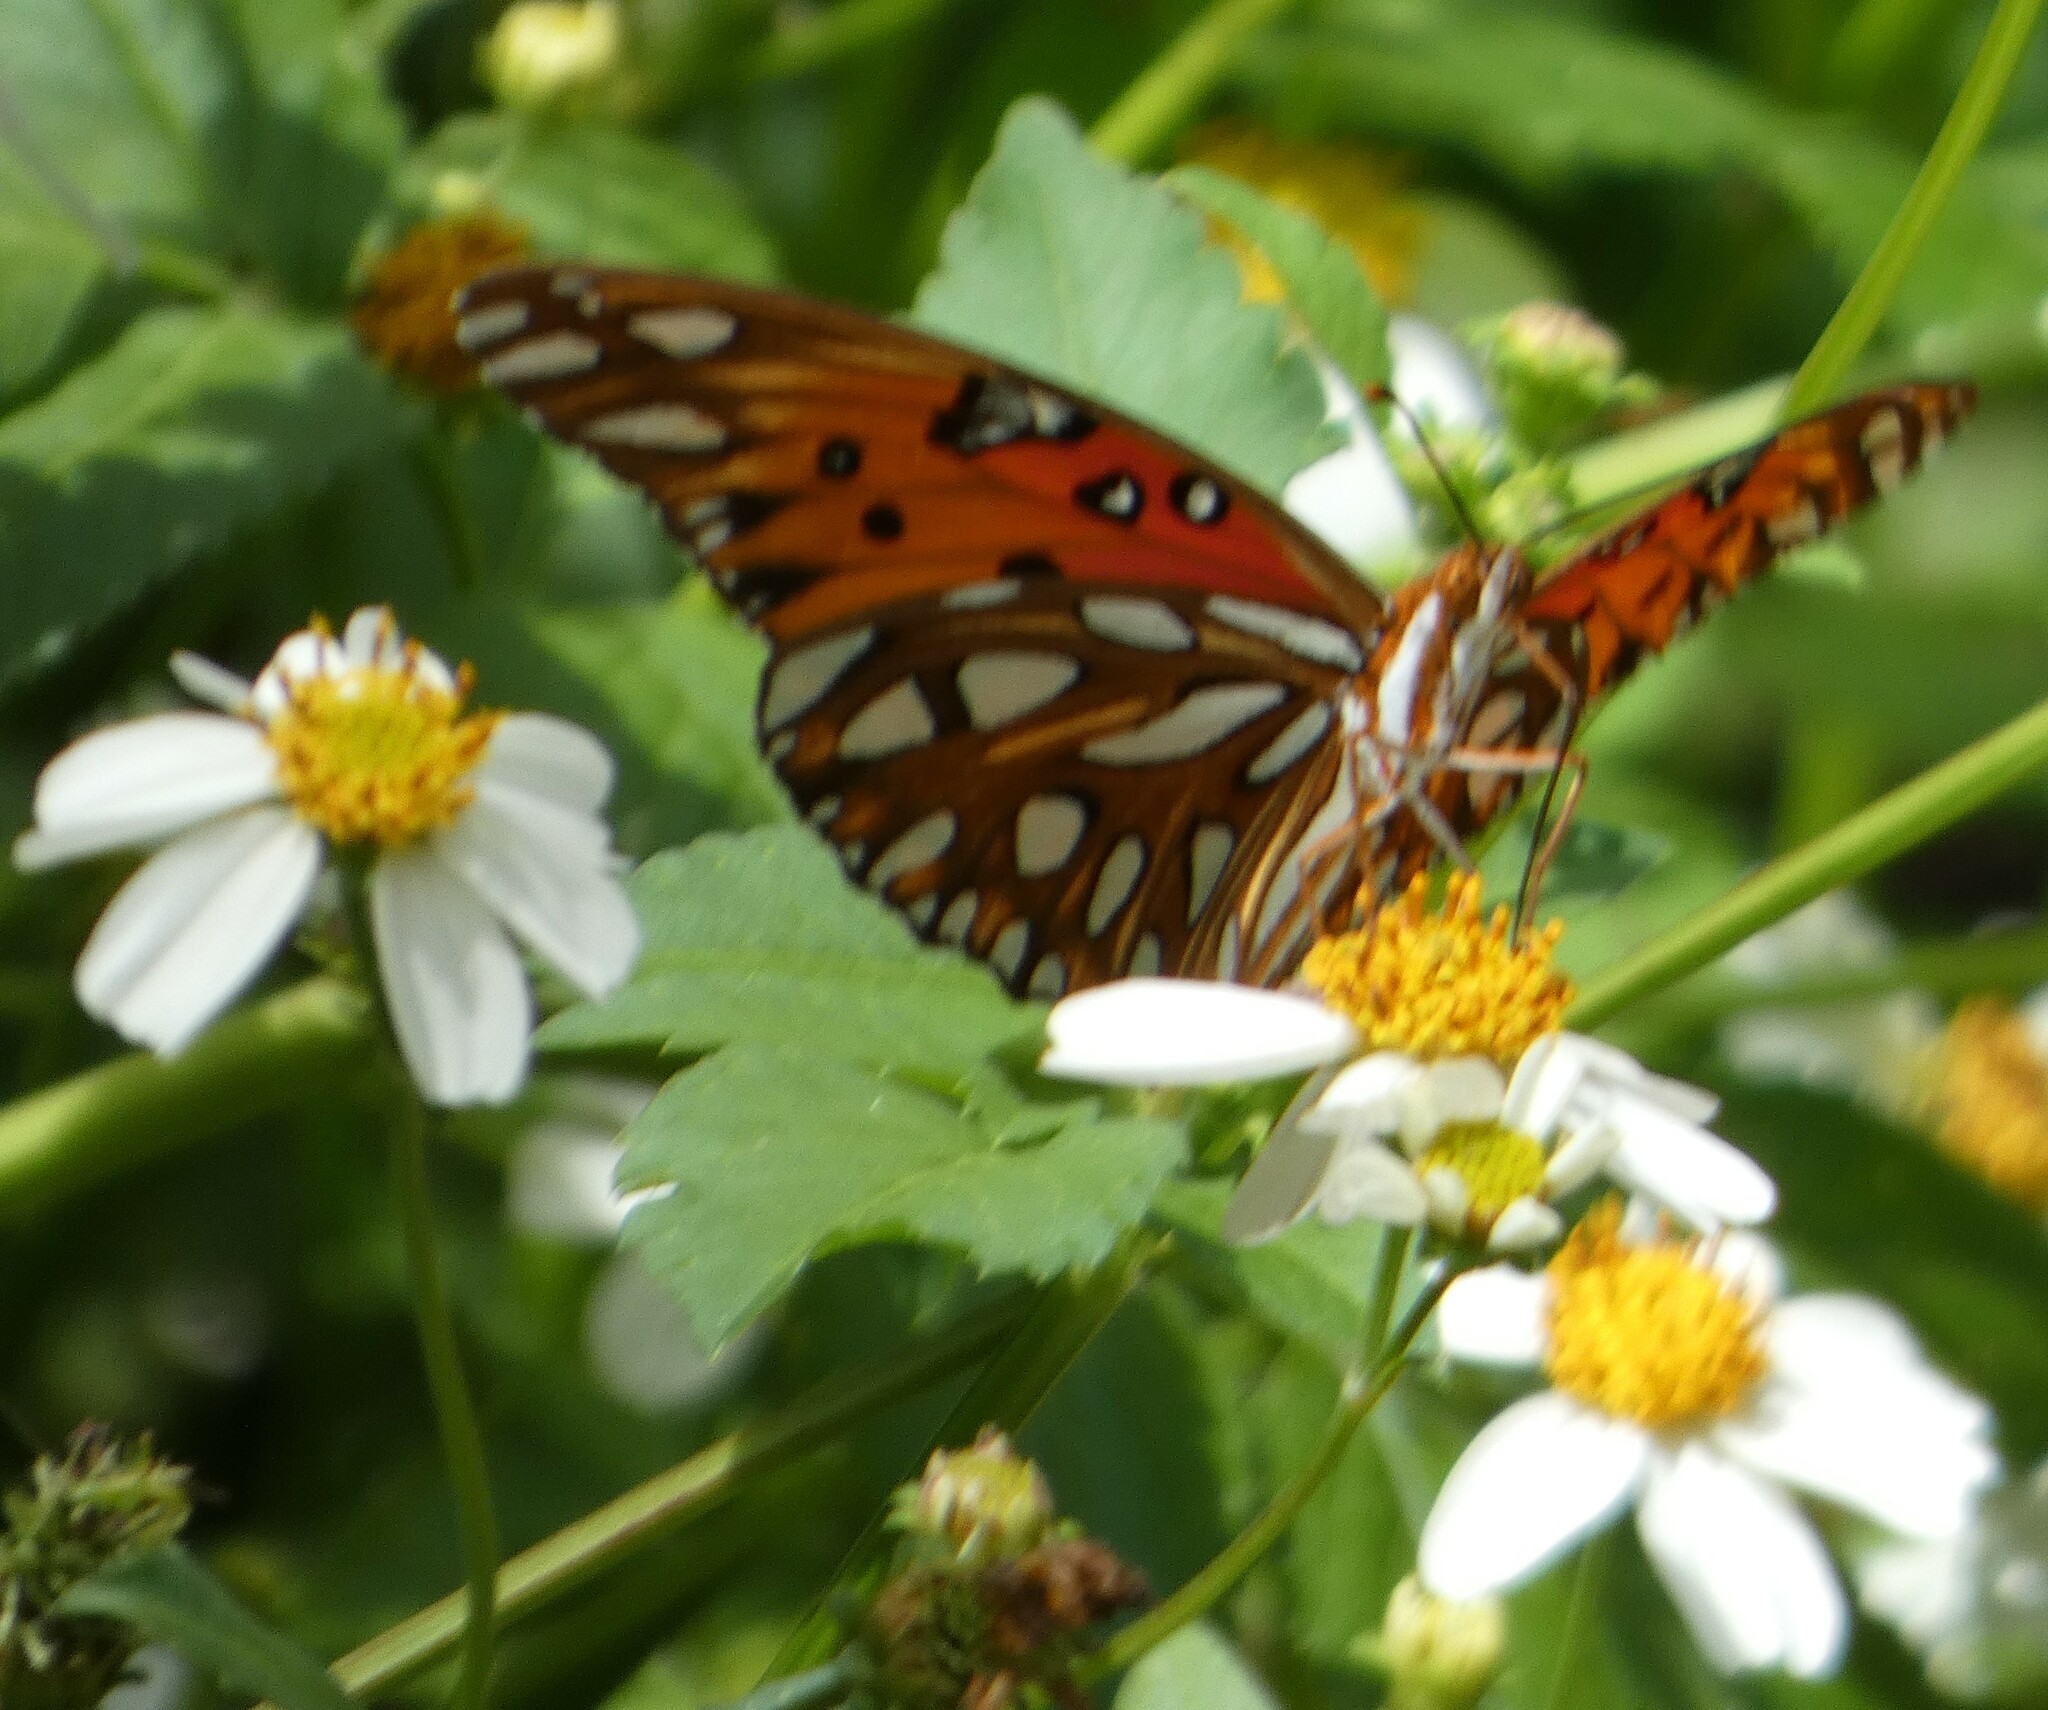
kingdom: Animalia
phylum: Arthropoda
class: Insecta
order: Lepidoptera
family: Nymphalidae
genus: Dione
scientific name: Dione vanillae
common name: Gulf fritillary
